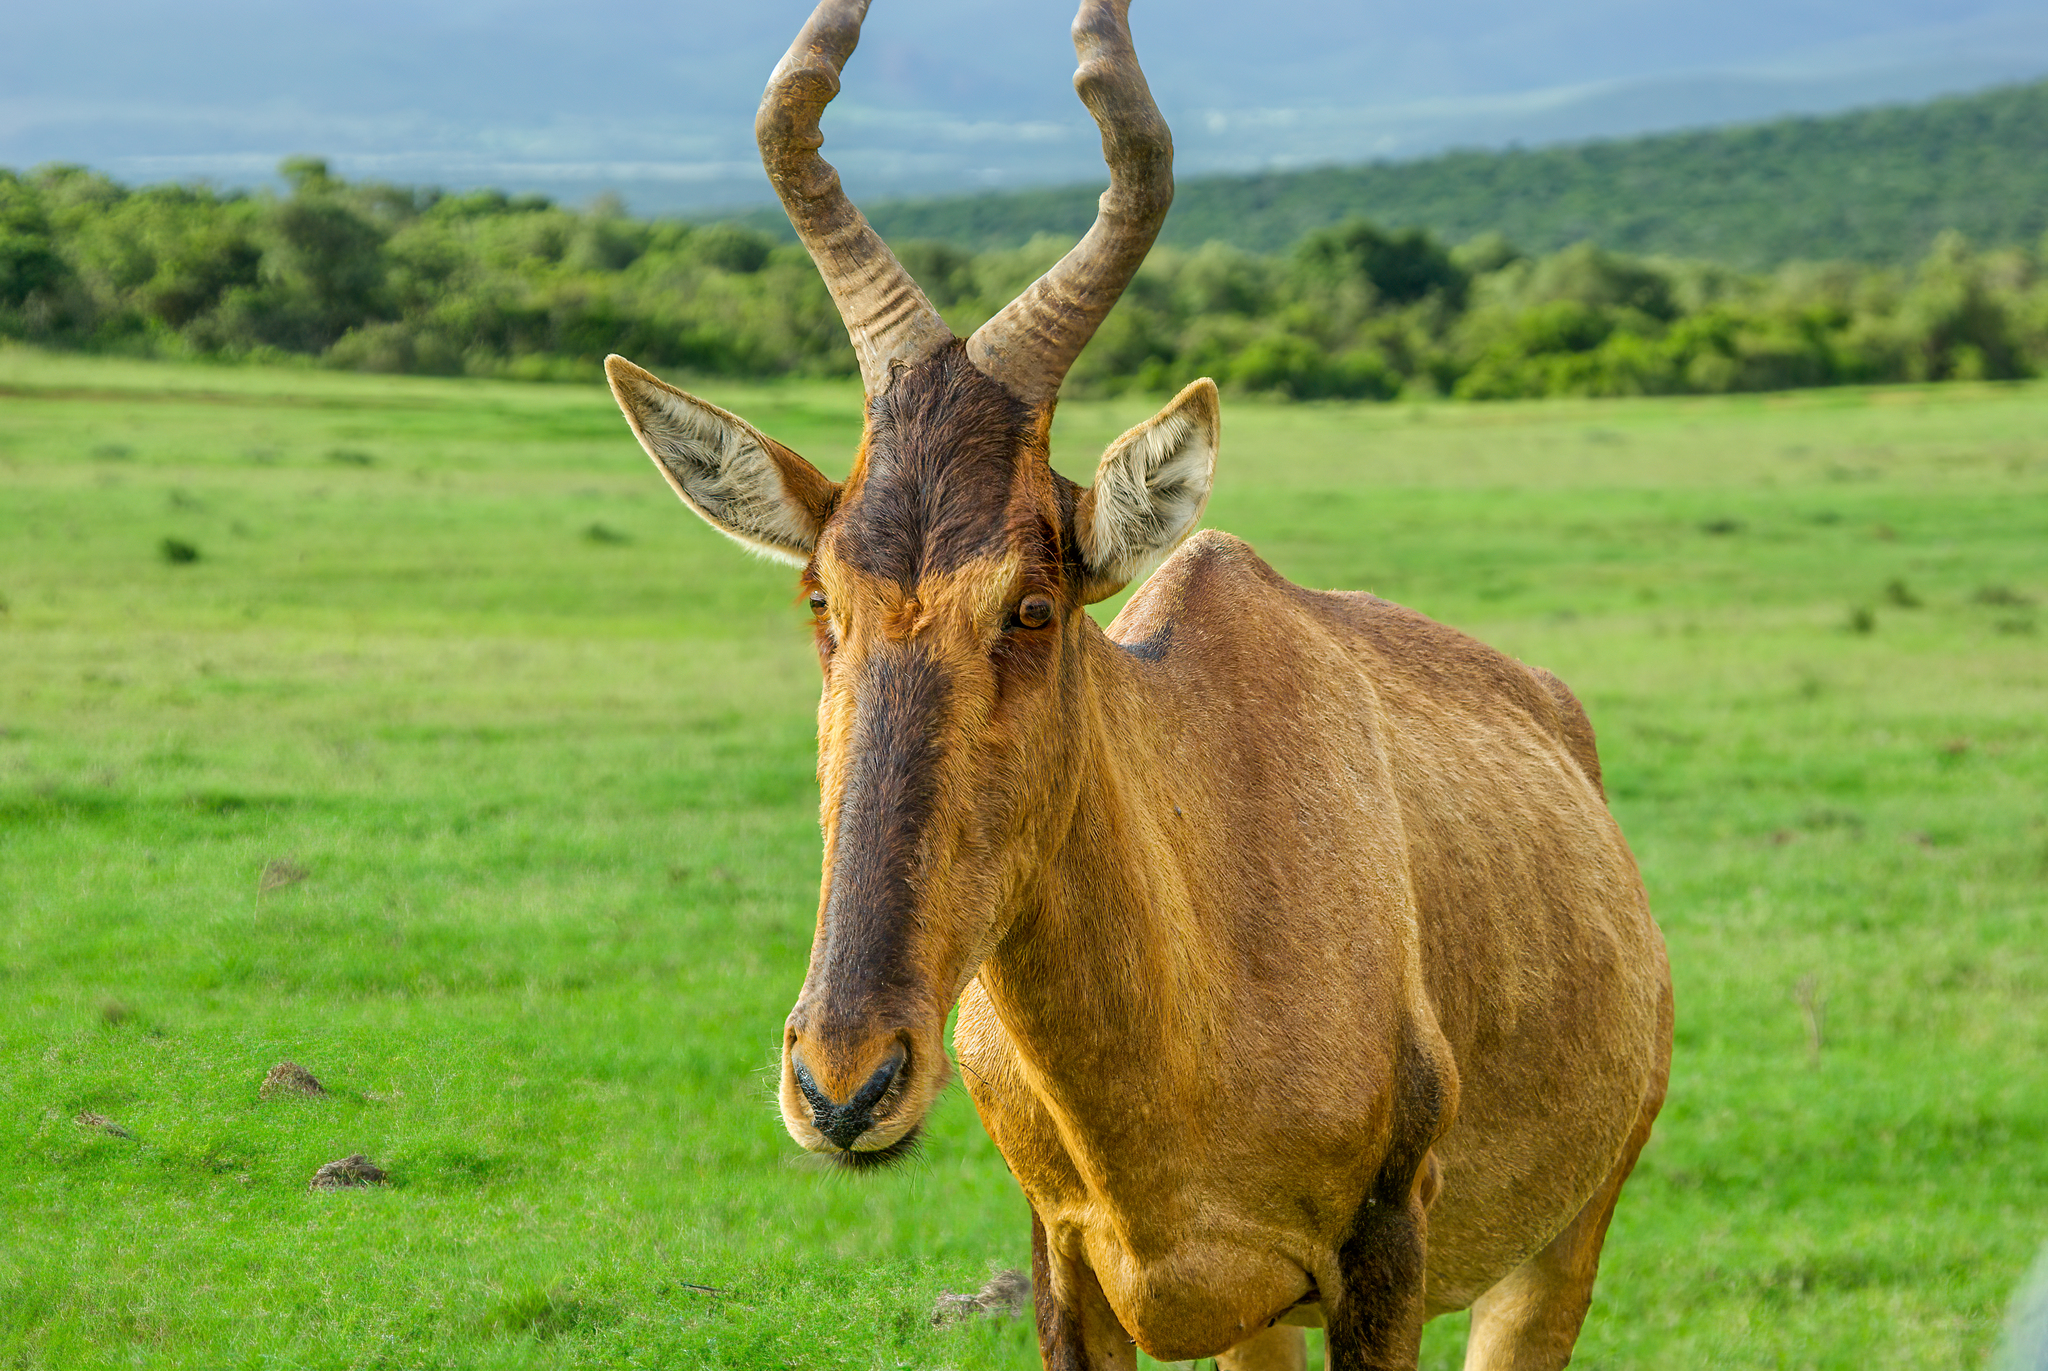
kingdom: Animalia
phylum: Chordata
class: Mammalia
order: Artiodactyla
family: Bovidae
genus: Alcelaphus
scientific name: Alcelaphus caama
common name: Red hartebeest
